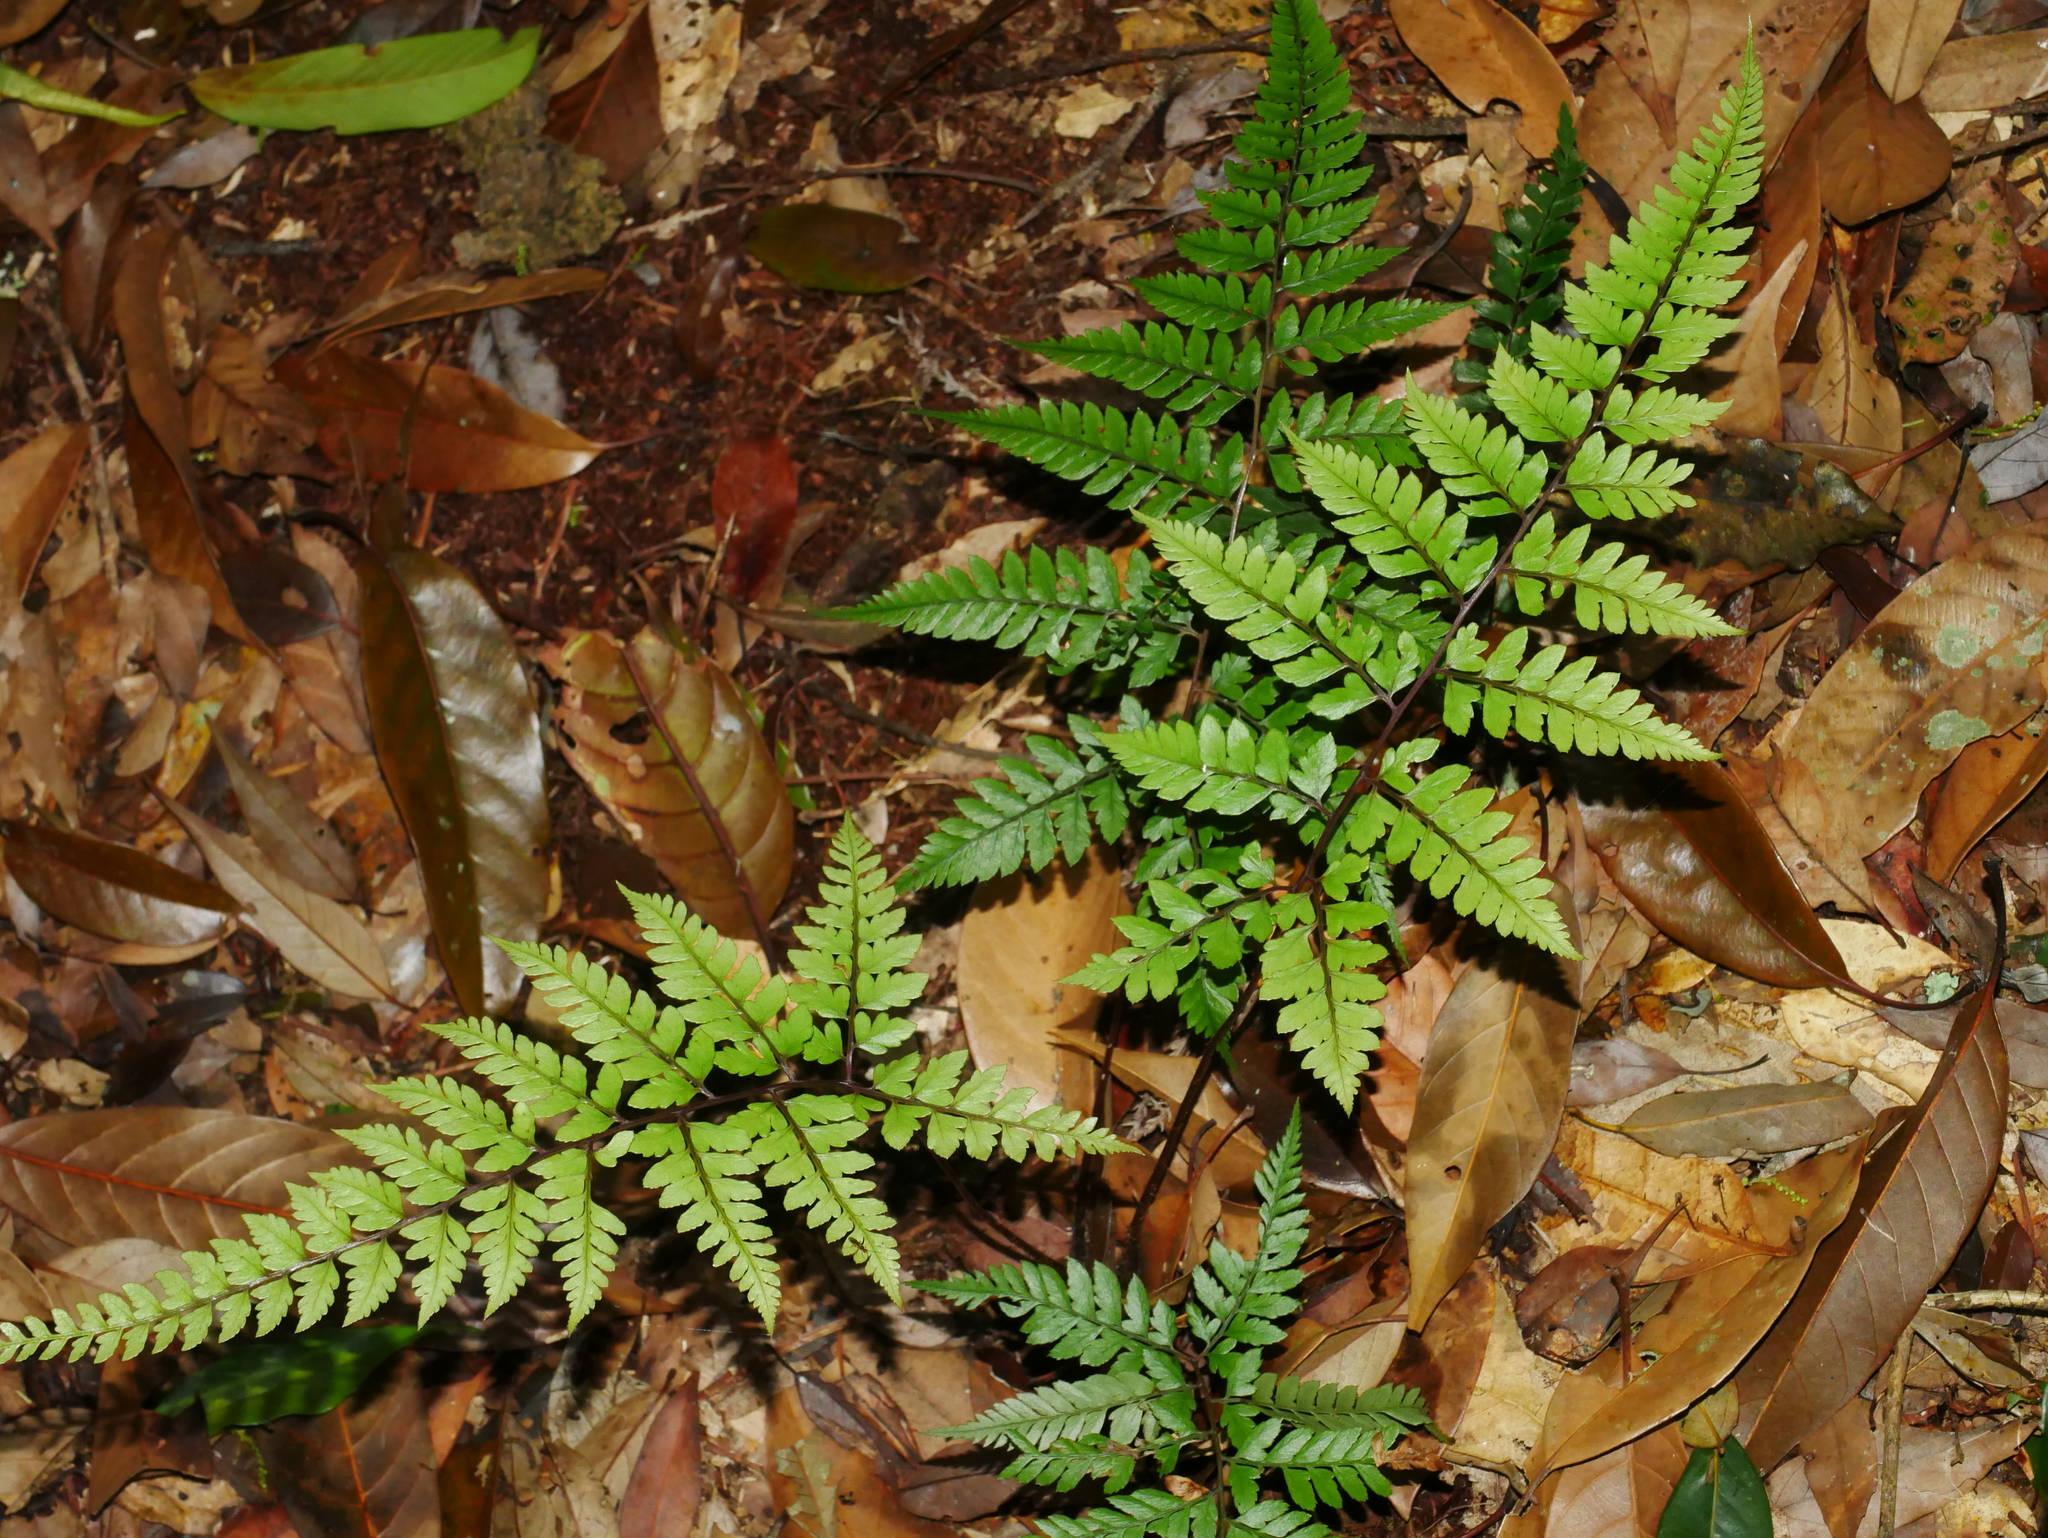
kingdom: Plantae
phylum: Tracheophyta
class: Polypodiopsida
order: Polypodiales
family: Athyriaceae
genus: Athyrium
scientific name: Athyrium erythropodum
